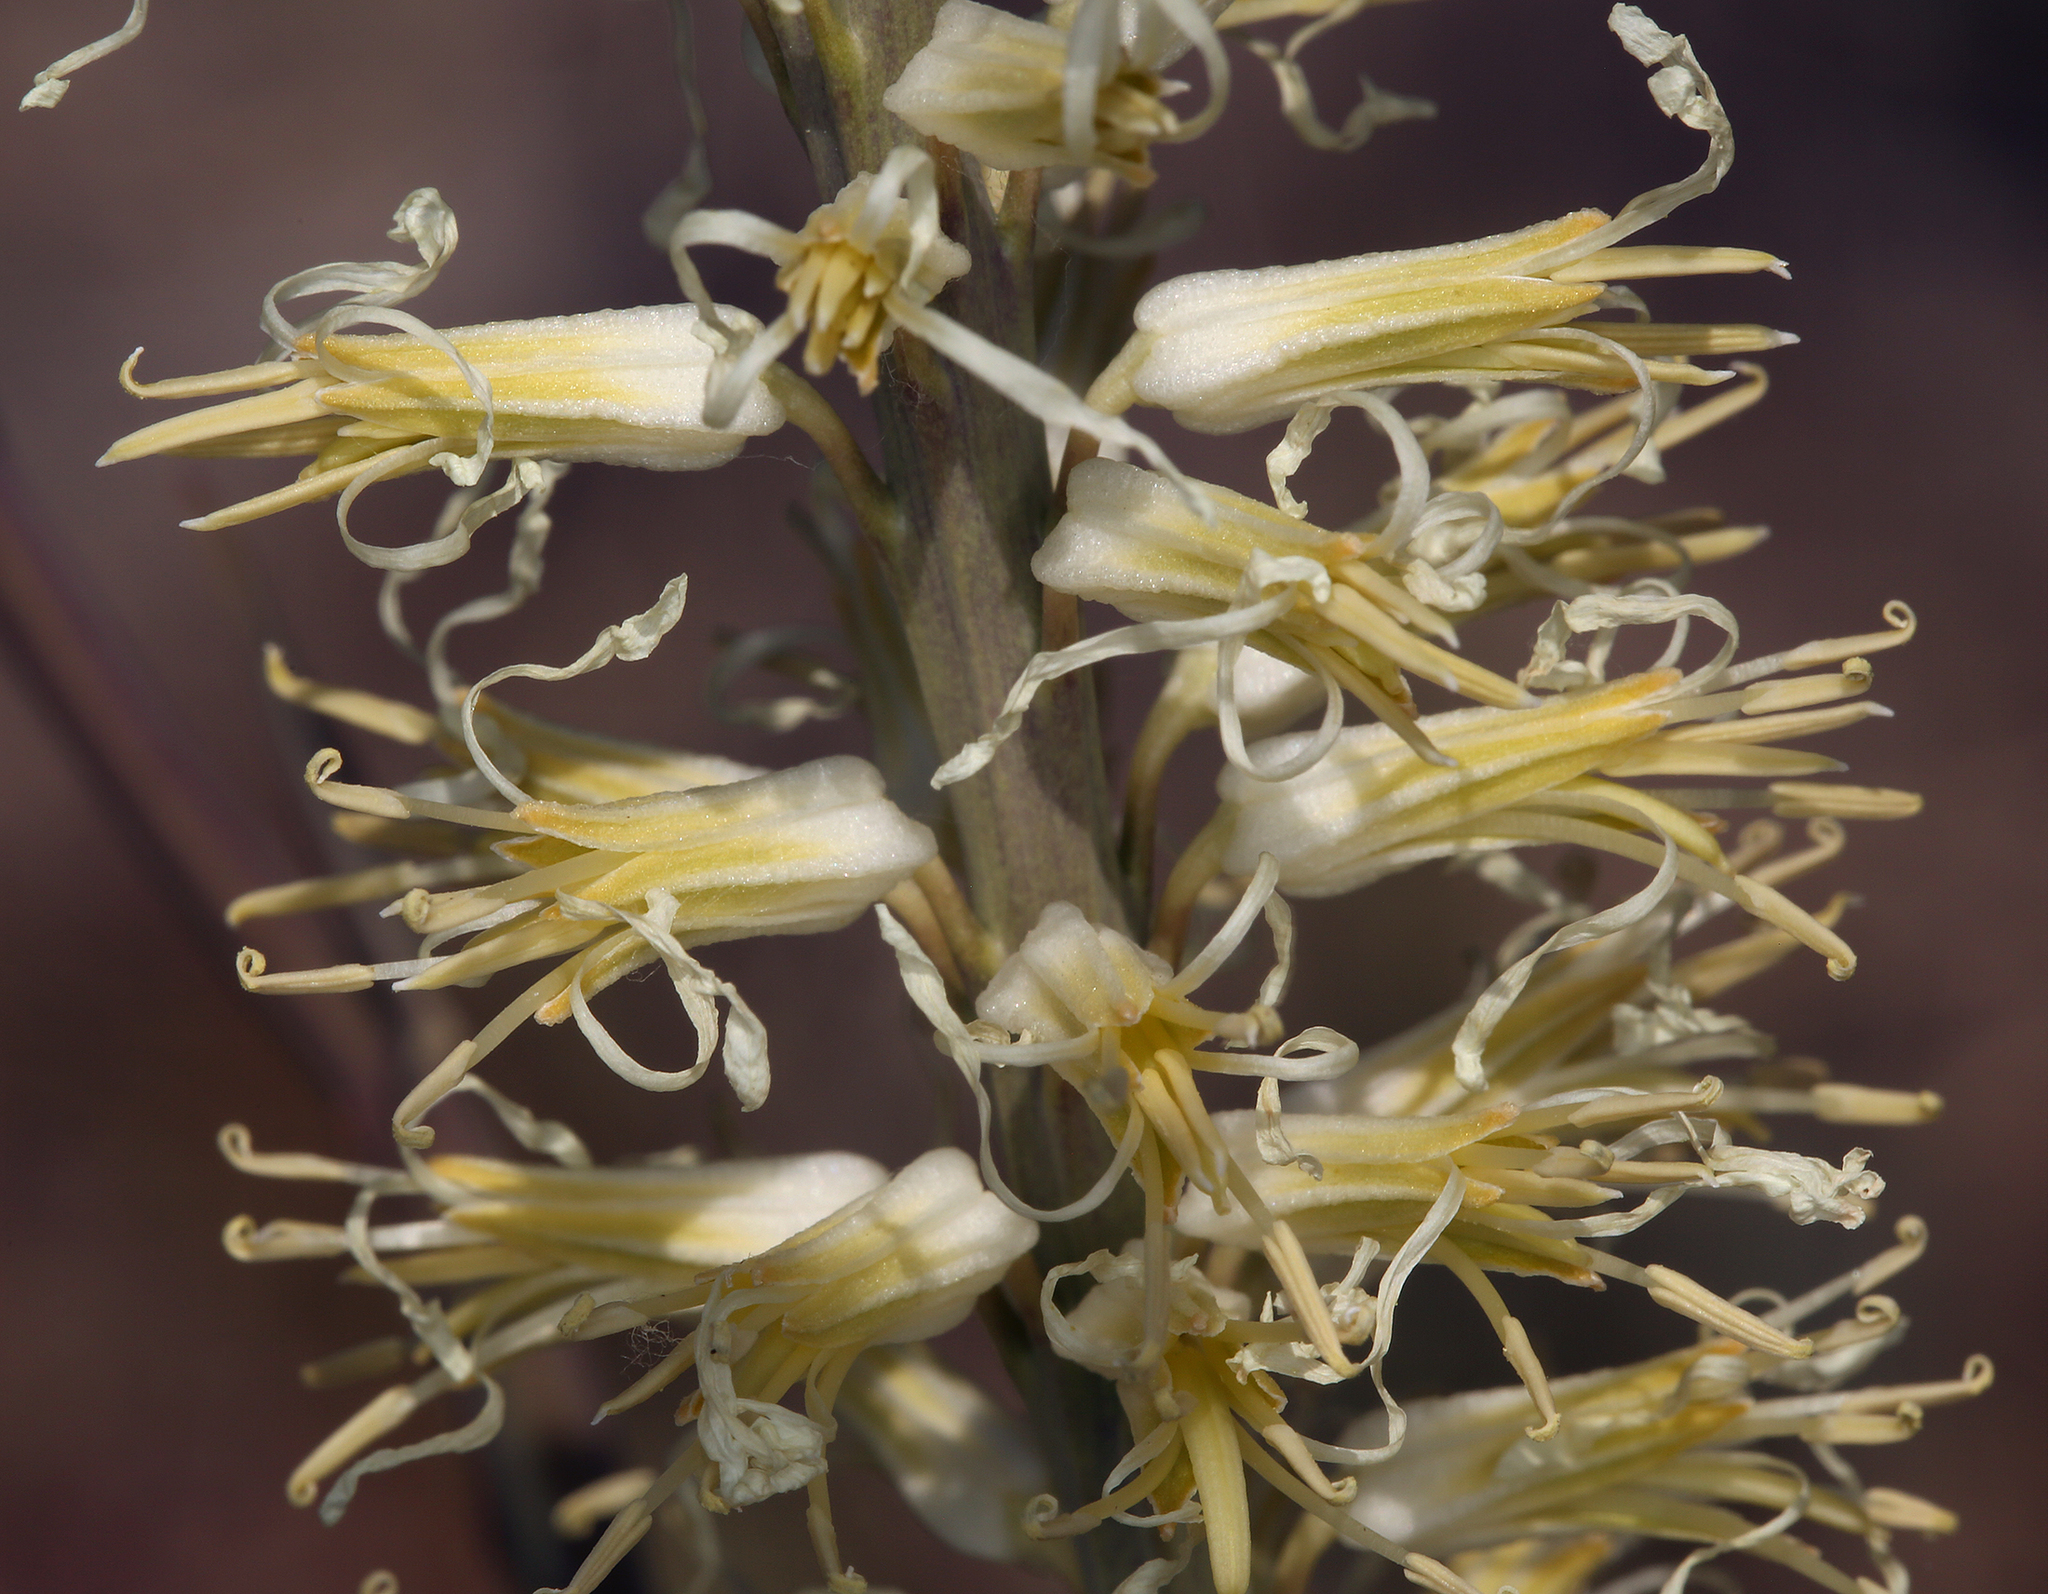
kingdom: Plantae
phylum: Tracheophyta
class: Magnoliopsida
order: Brassicales
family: Brassicaceae
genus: Thelypodium
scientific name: Thelypodium crispum
